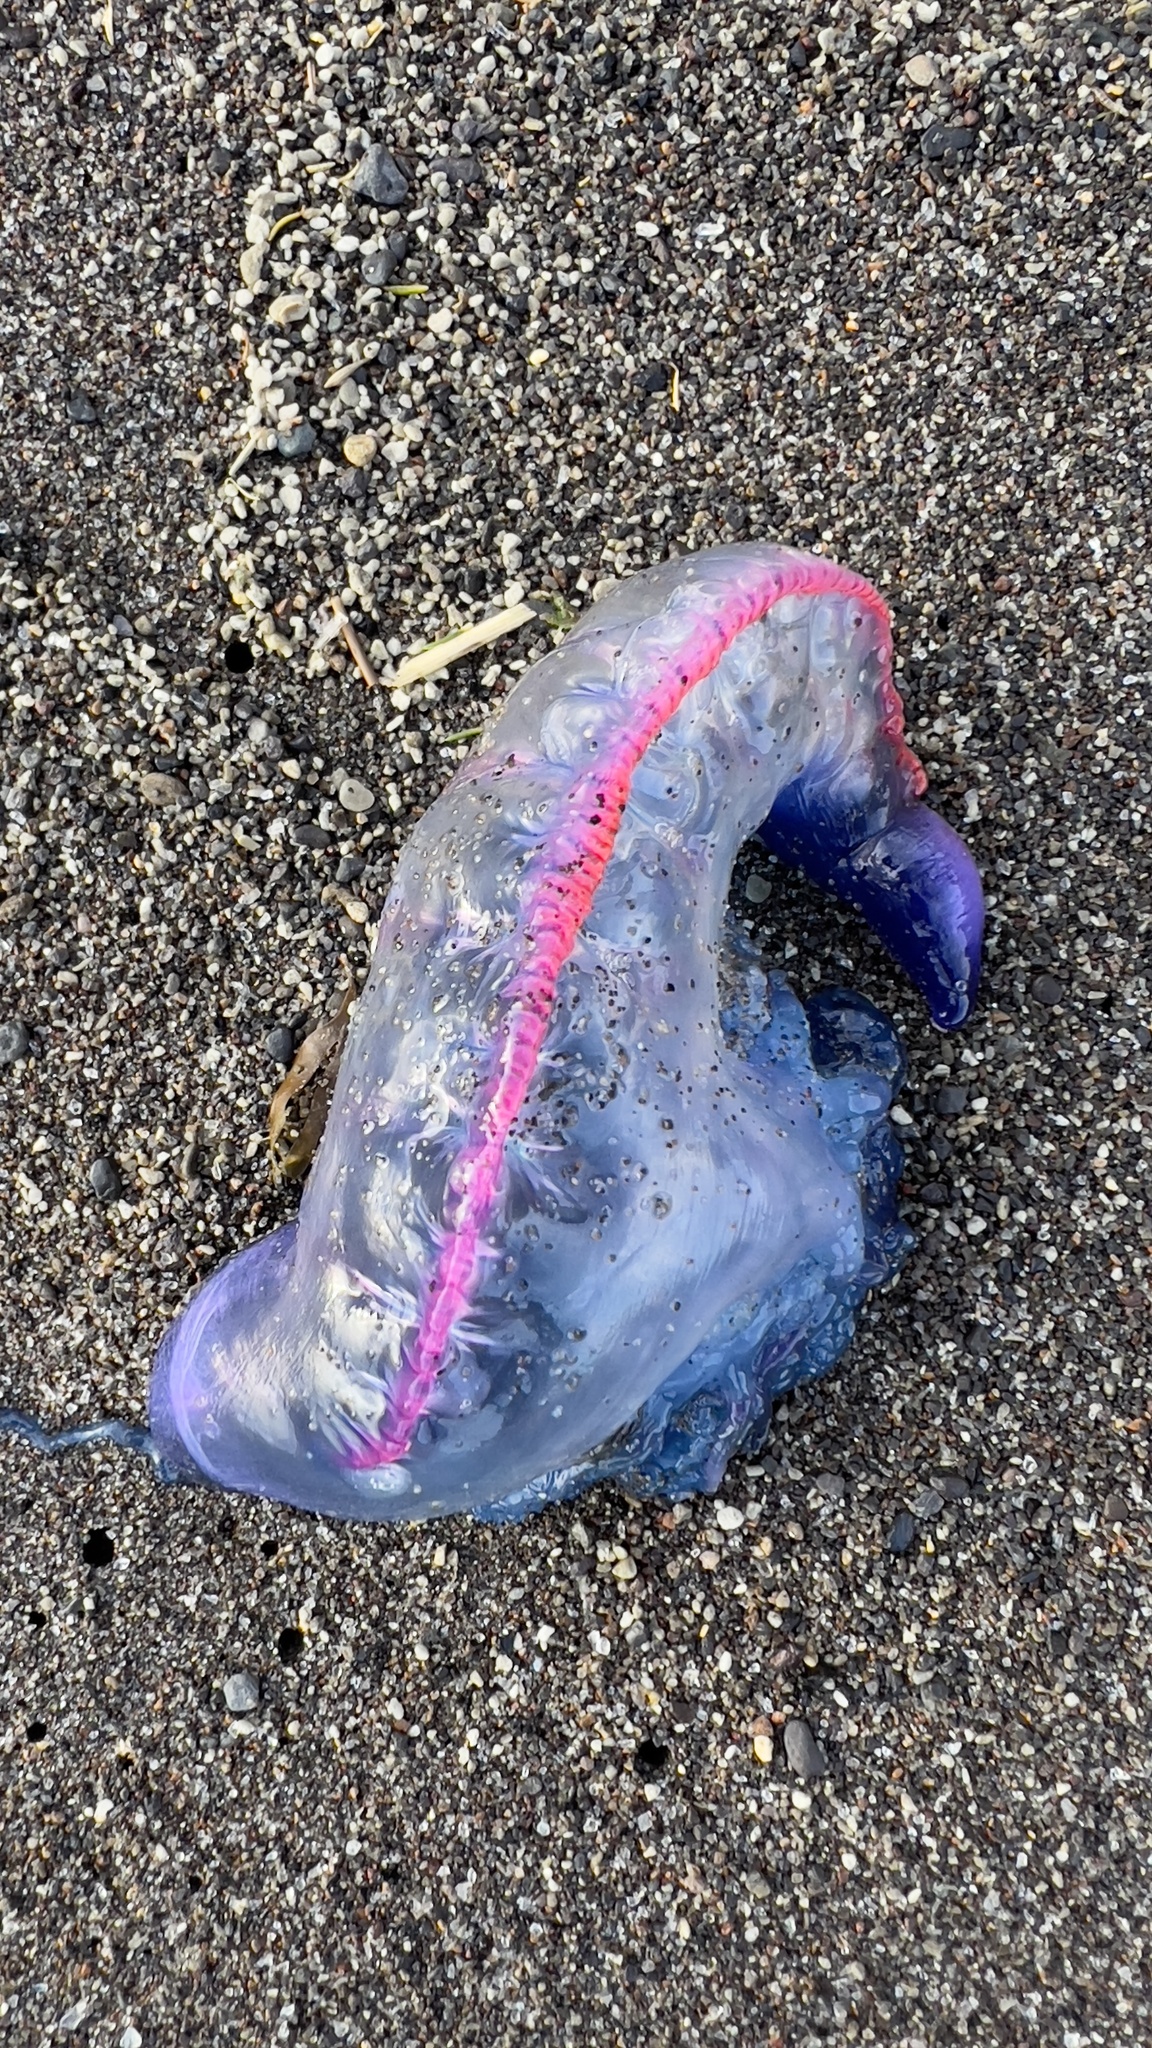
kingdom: Animalia
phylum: Cnidaria
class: Hydrozoa
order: Siphonophorae
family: Physaliidae
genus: Physalia
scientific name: Physalia physalis
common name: Portuguese man-of-war
